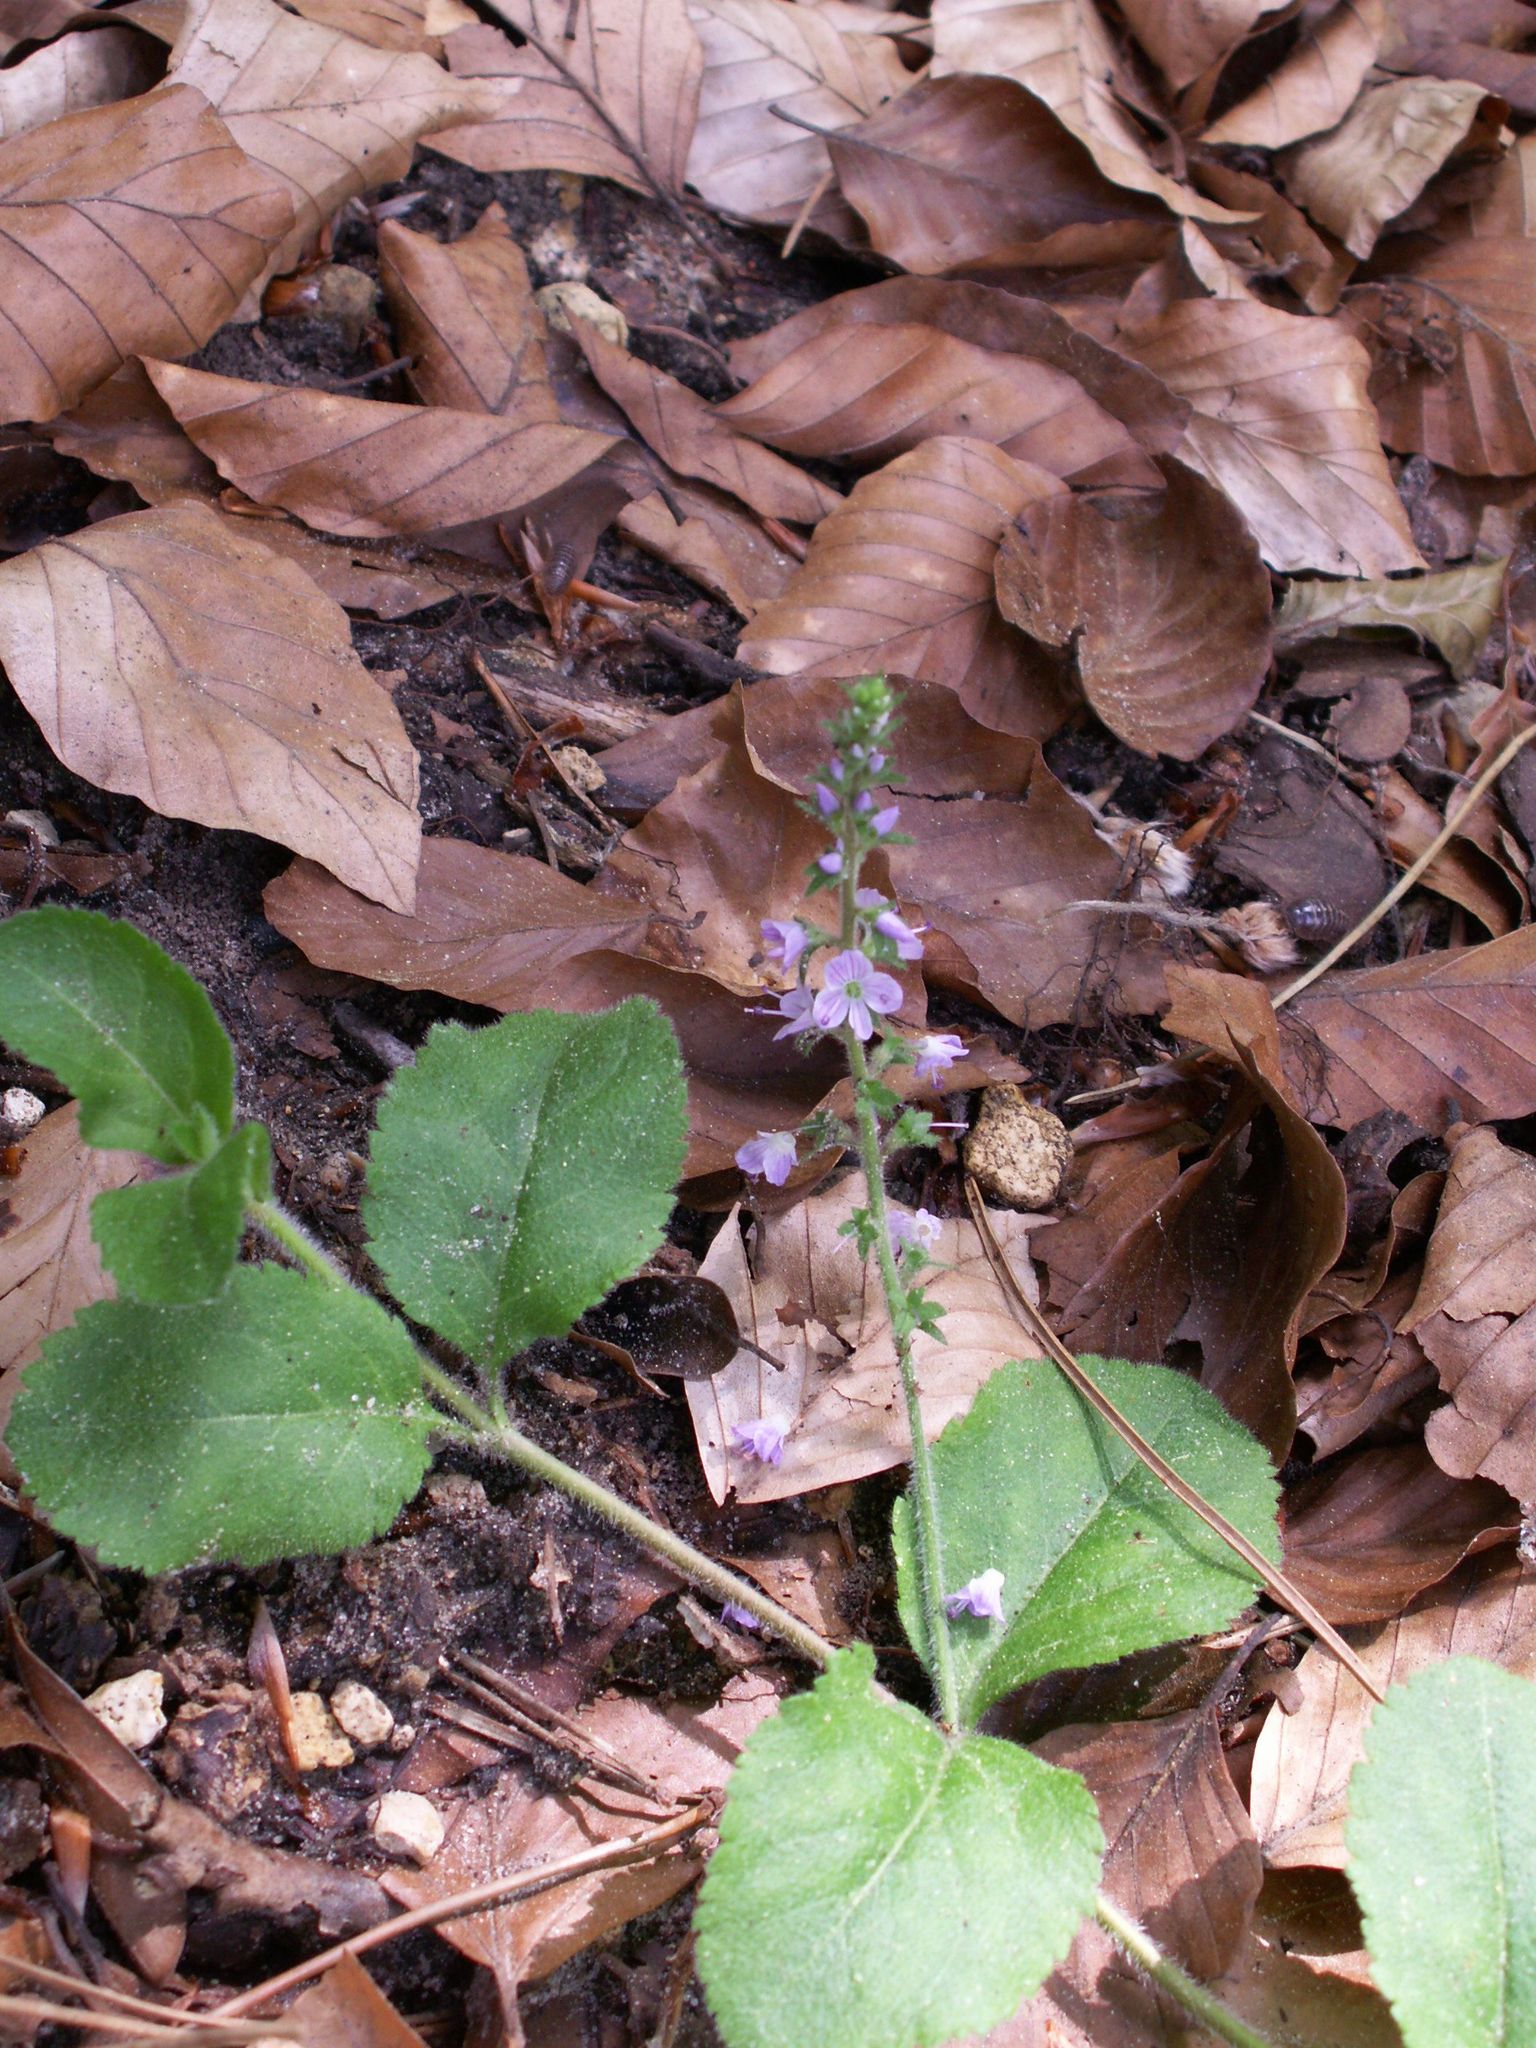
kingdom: Plantae
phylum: Tracheophyta
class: Magnoliopsida
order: Lamiales
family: Plantaginaceae
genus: Veronica
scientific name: Veronica officinalis
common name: Common speedwell
